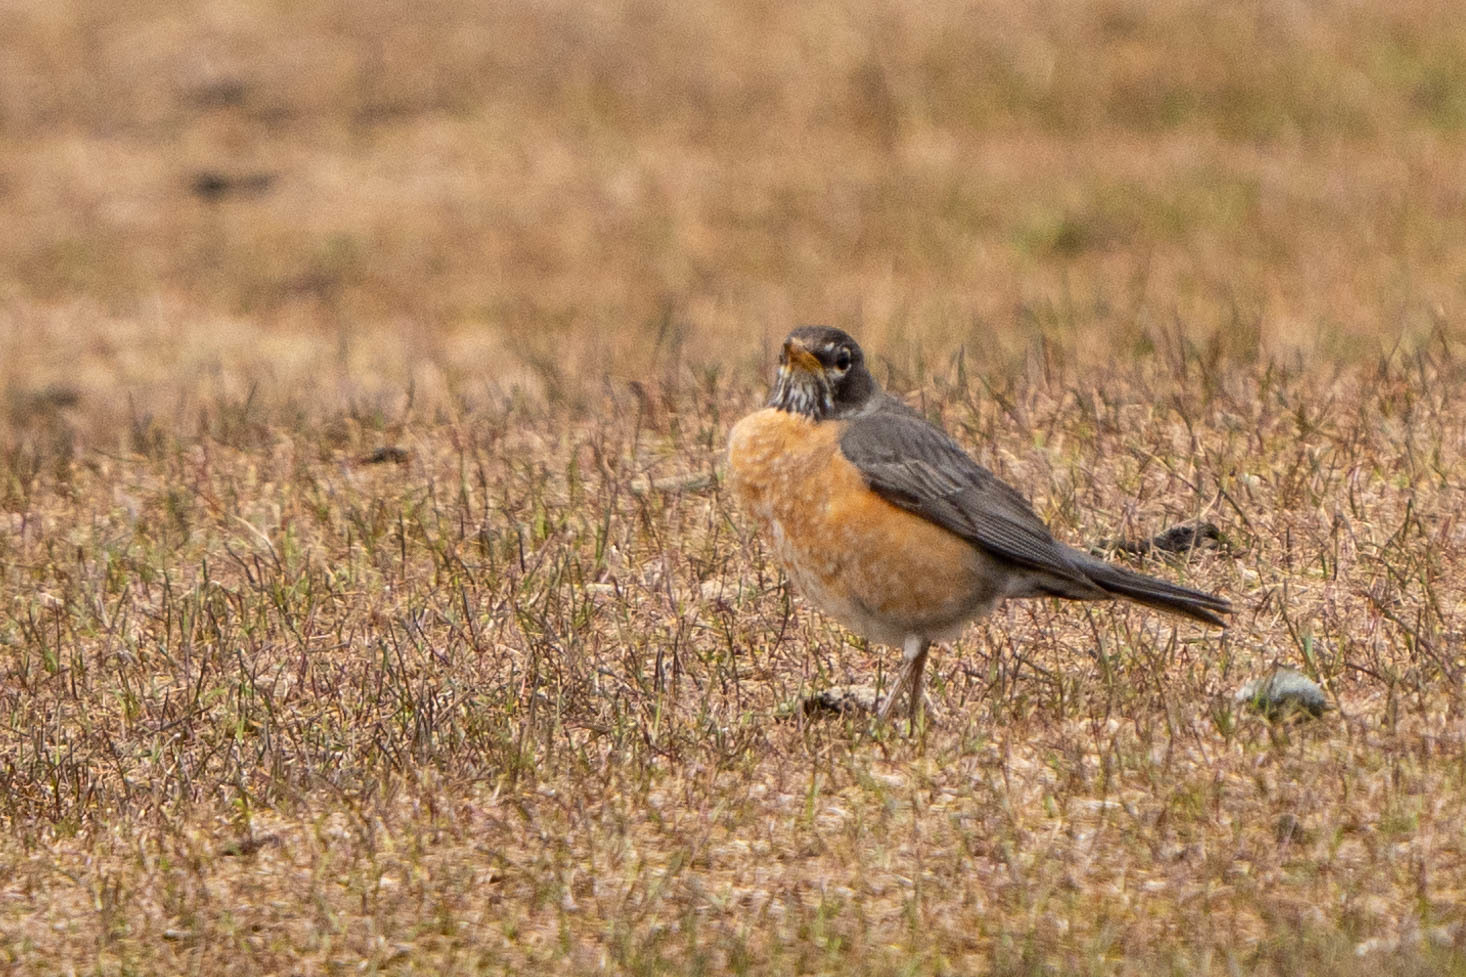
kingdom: Animalia
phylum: Chordata
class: Aves
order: Passeriformes
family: Turdidae
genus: Turdus
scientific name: Turdus migratorius
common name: American robin
